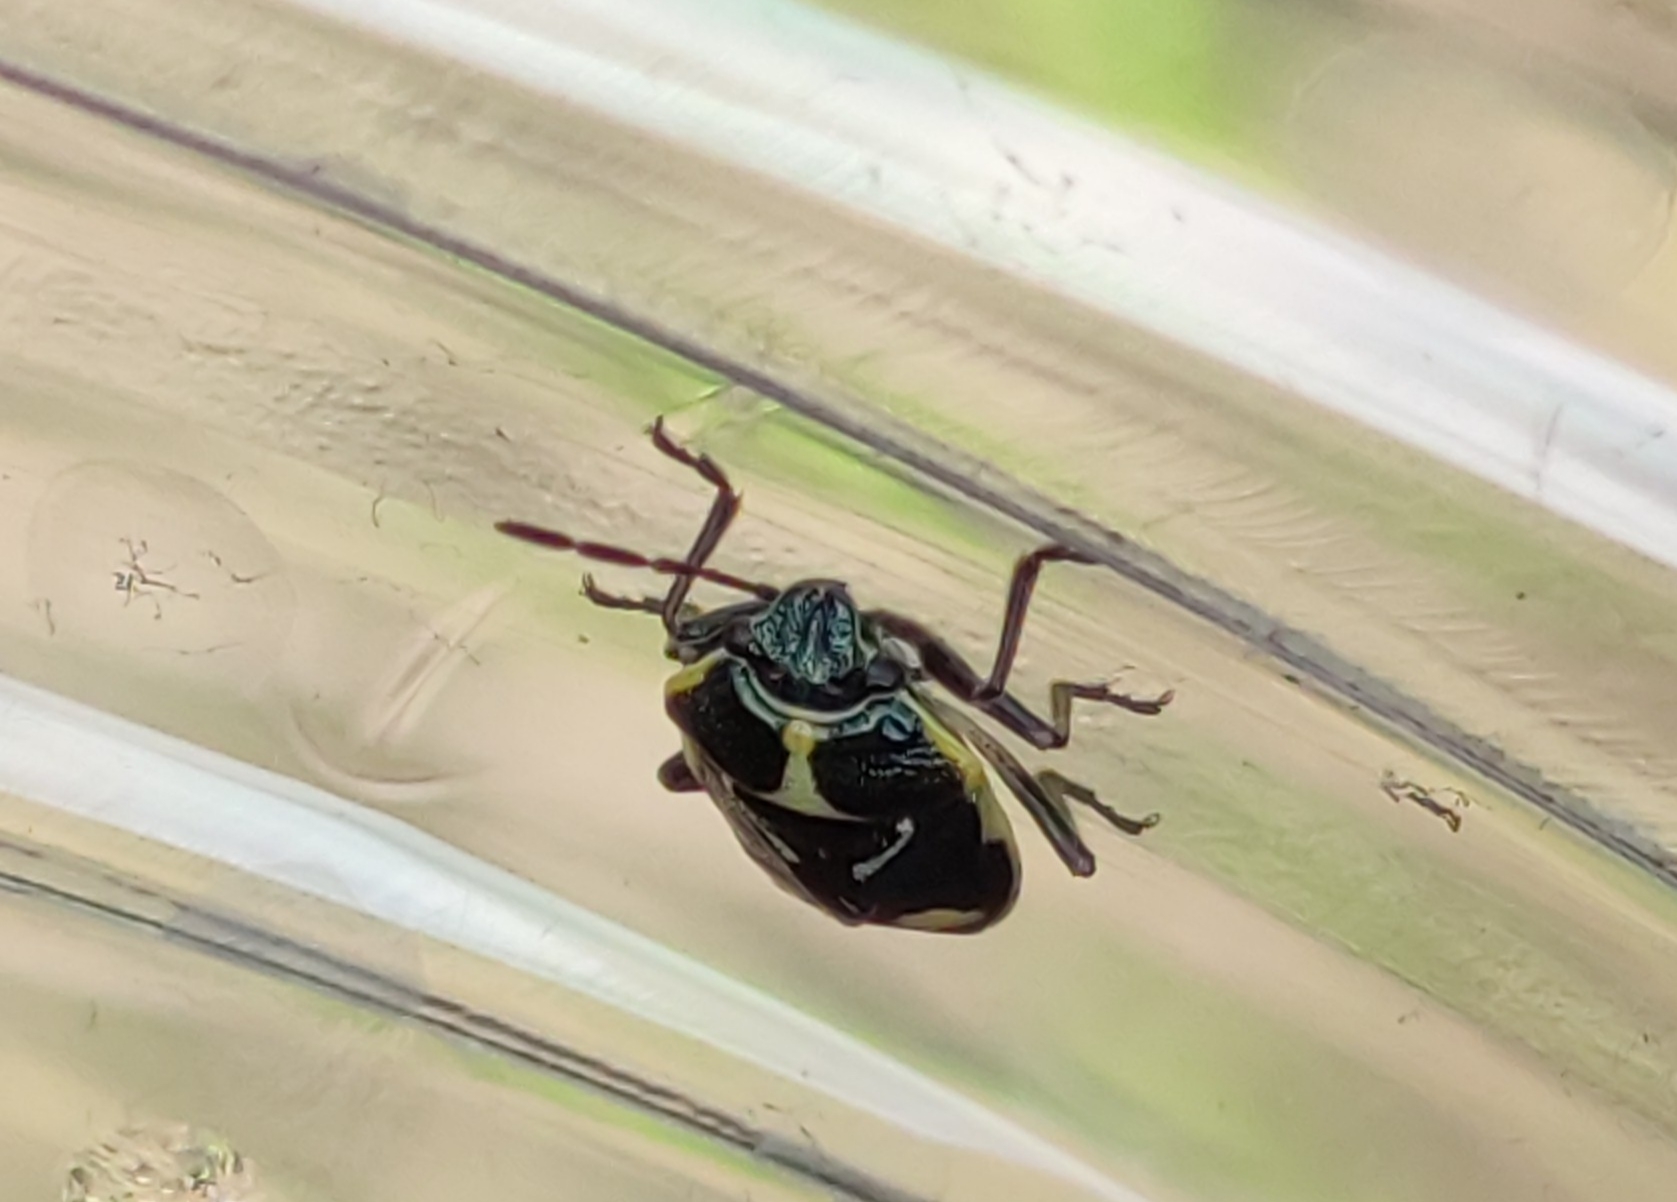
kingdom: Animalia
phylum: Arthropoda
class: Insecta
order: Hemiptera
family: Pentatomidae
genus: Eurydema
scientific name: Eurydema oleracea
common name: Cabbage bug
